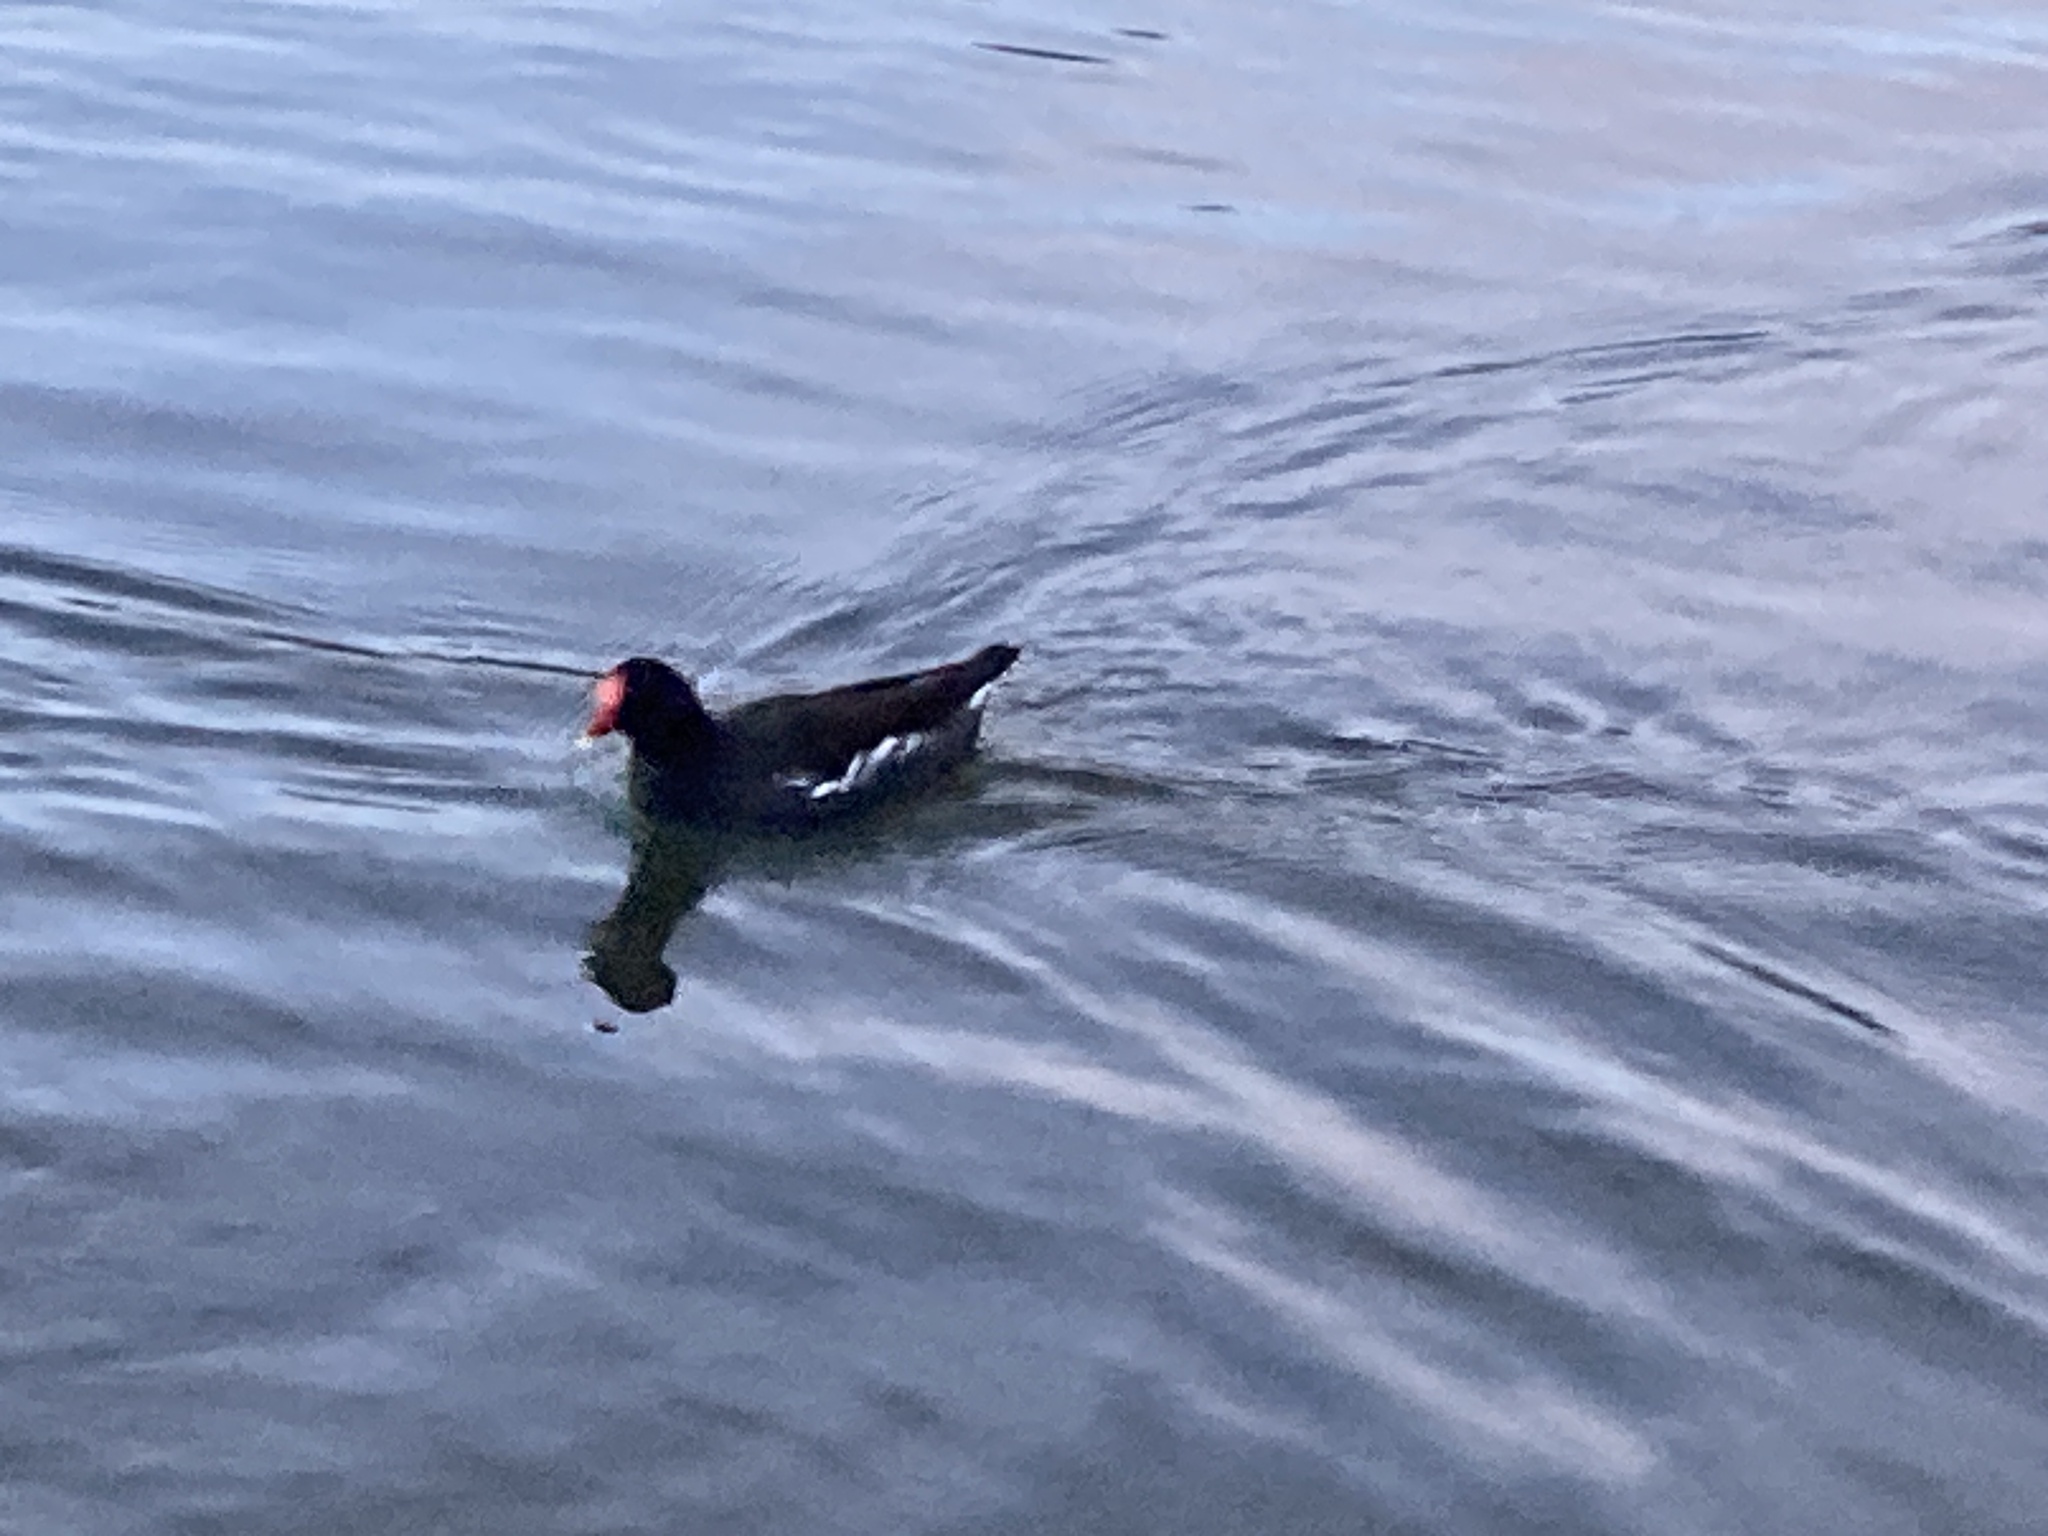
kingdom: Animalia
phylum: Chordata
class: Aves
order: Gruiformes
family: Rallidae
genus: Gallinula
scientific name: Gallinula chloropus
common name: Common moorhen
